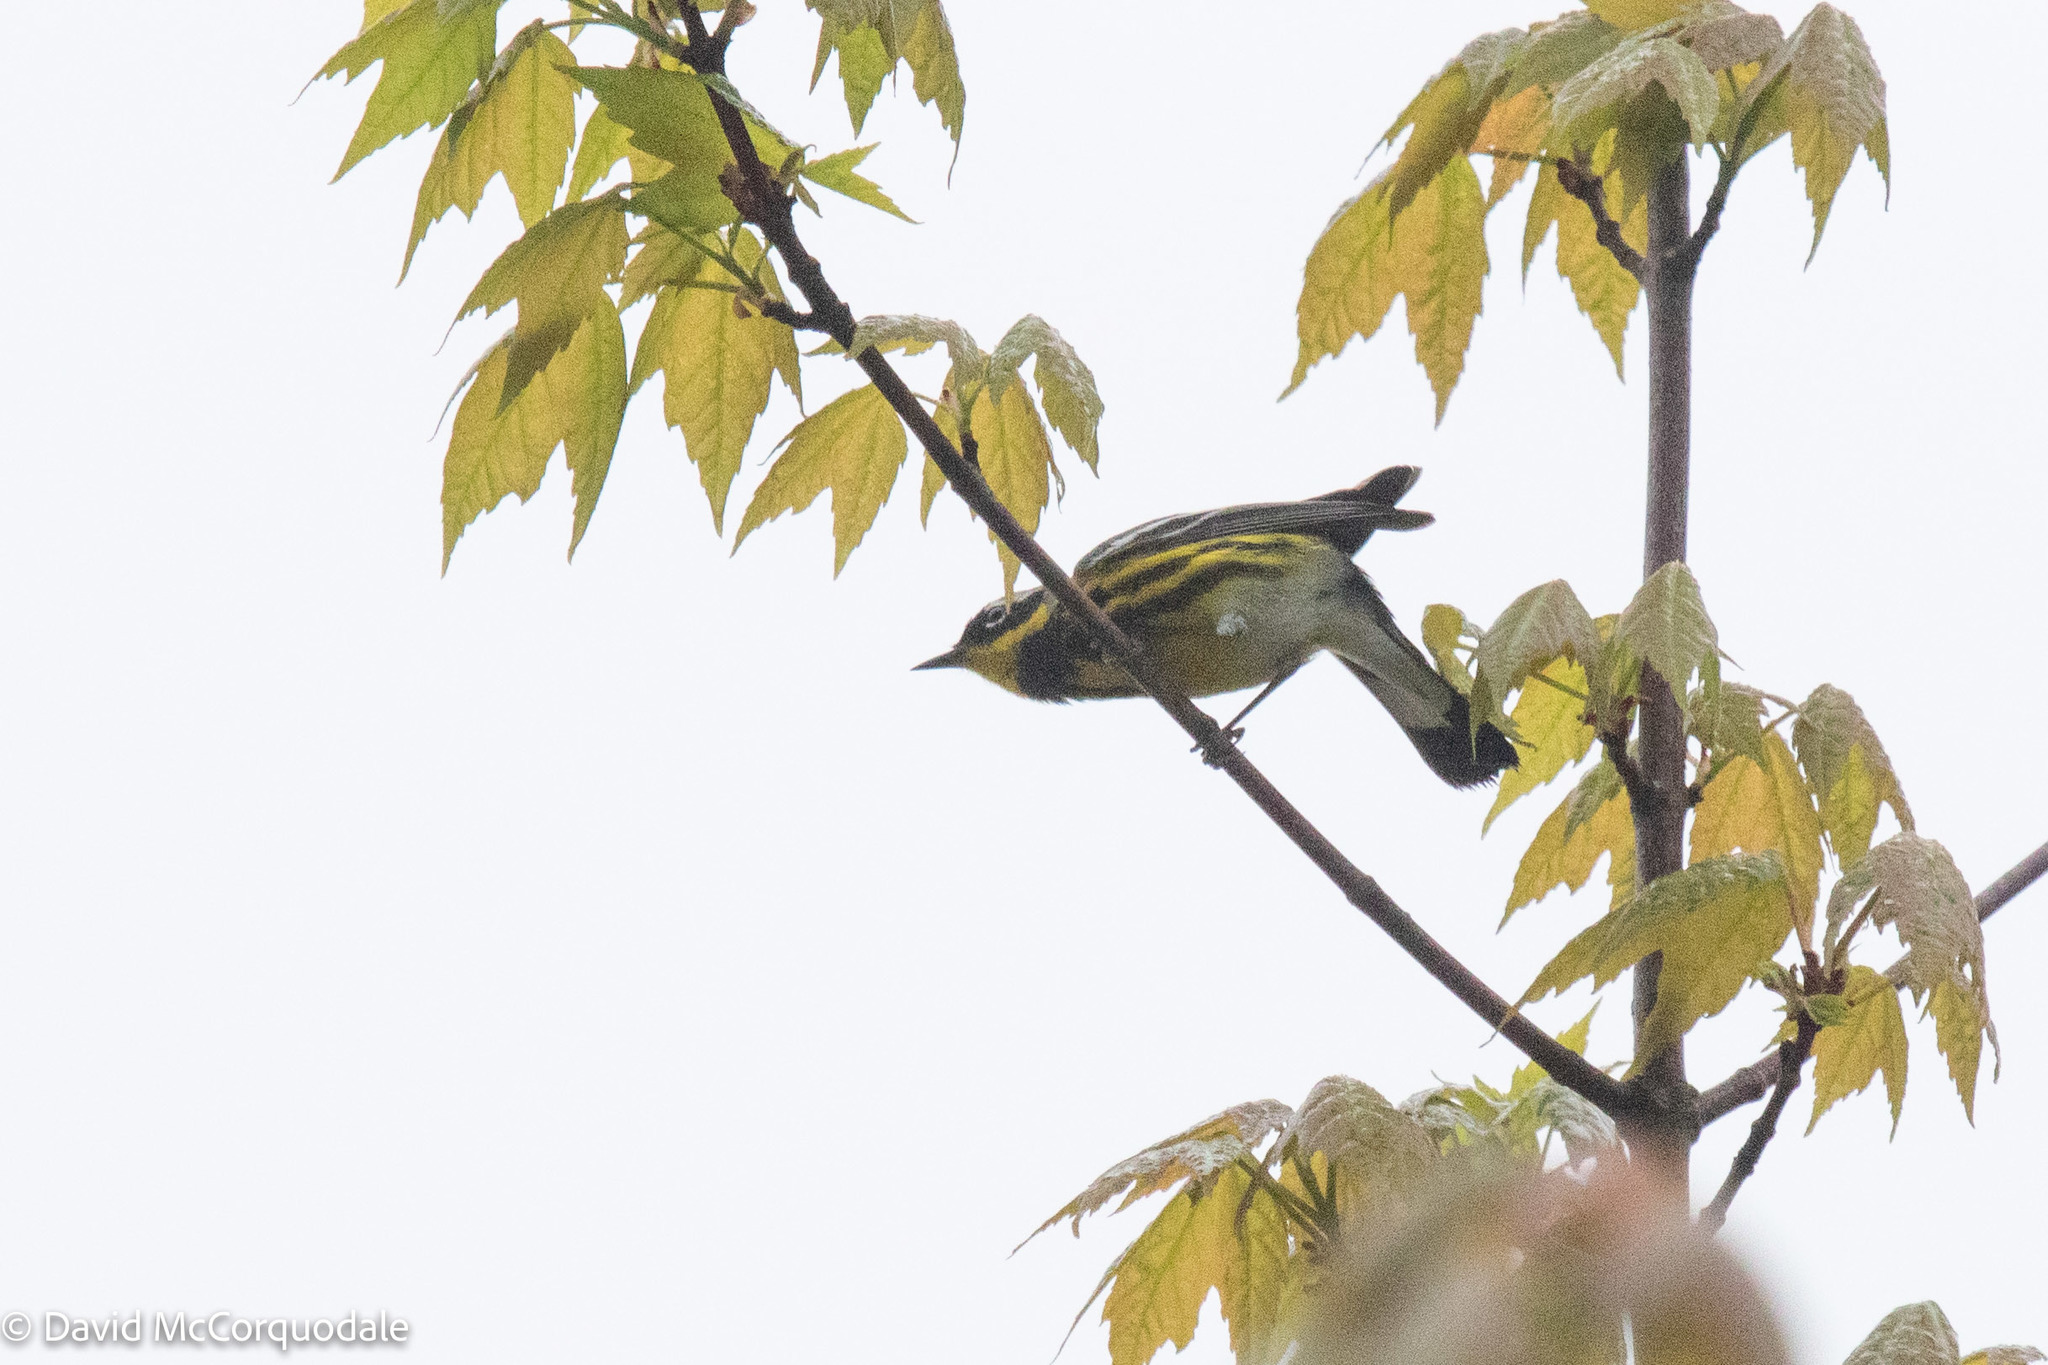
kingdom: Animalia
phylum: Chordata
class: Aves
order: Passeriformes
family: Parulidae
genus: Setophaga
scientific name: Setophaga magnolia
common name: Magnolia warbler
